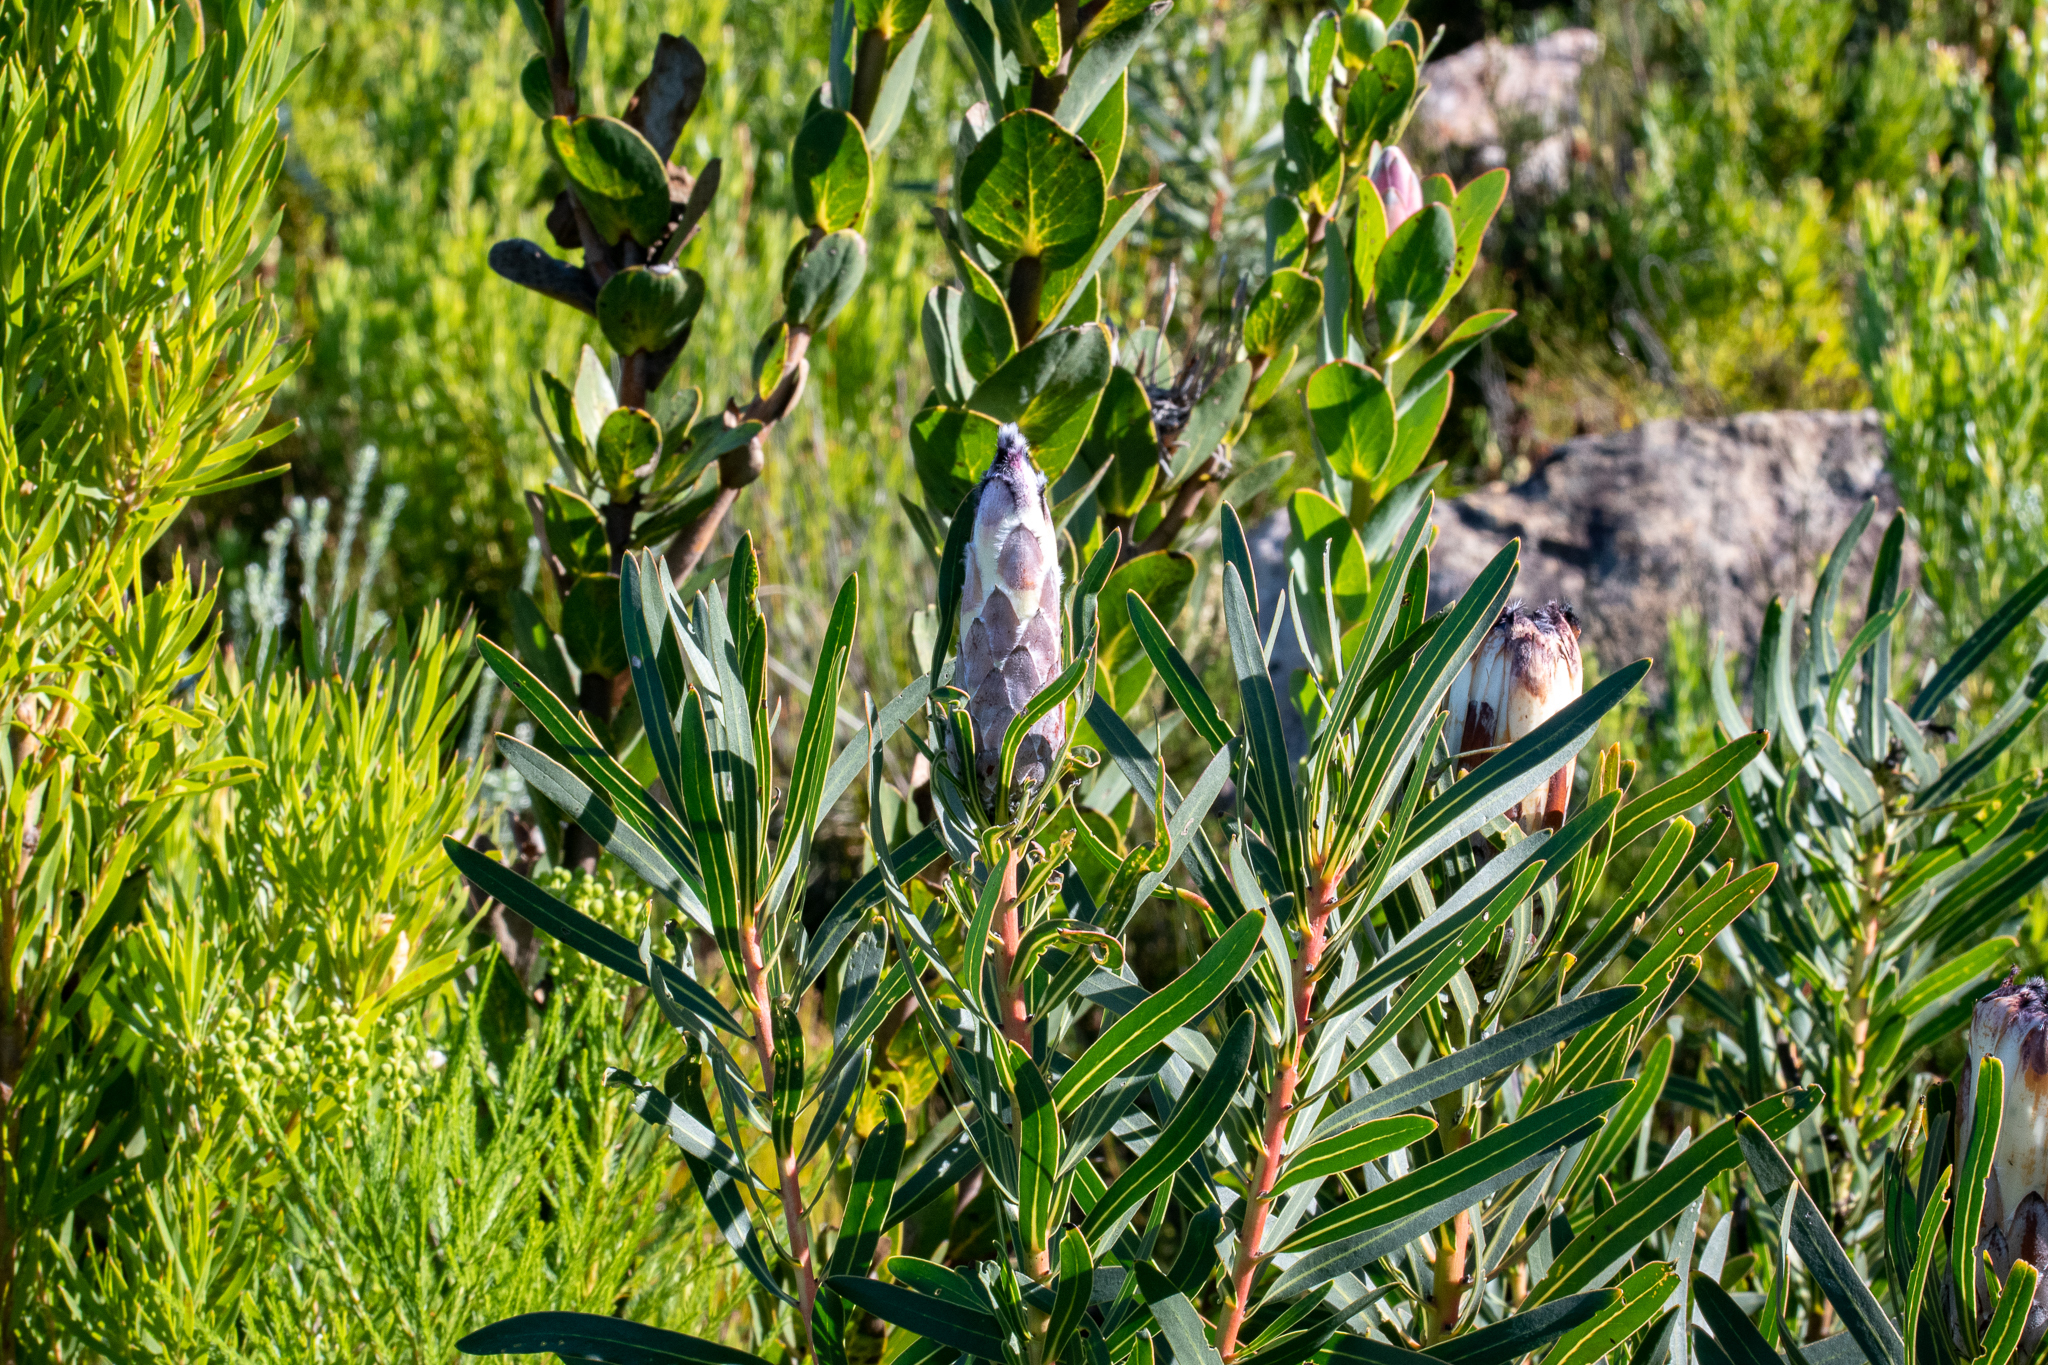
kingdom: Plantae
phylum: Tracheophyta
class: Magnoliopsida
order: Proteales
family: Proteaceae
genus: Protea
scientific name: Protea lepidocarpodendron
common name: Black-bearded protea
